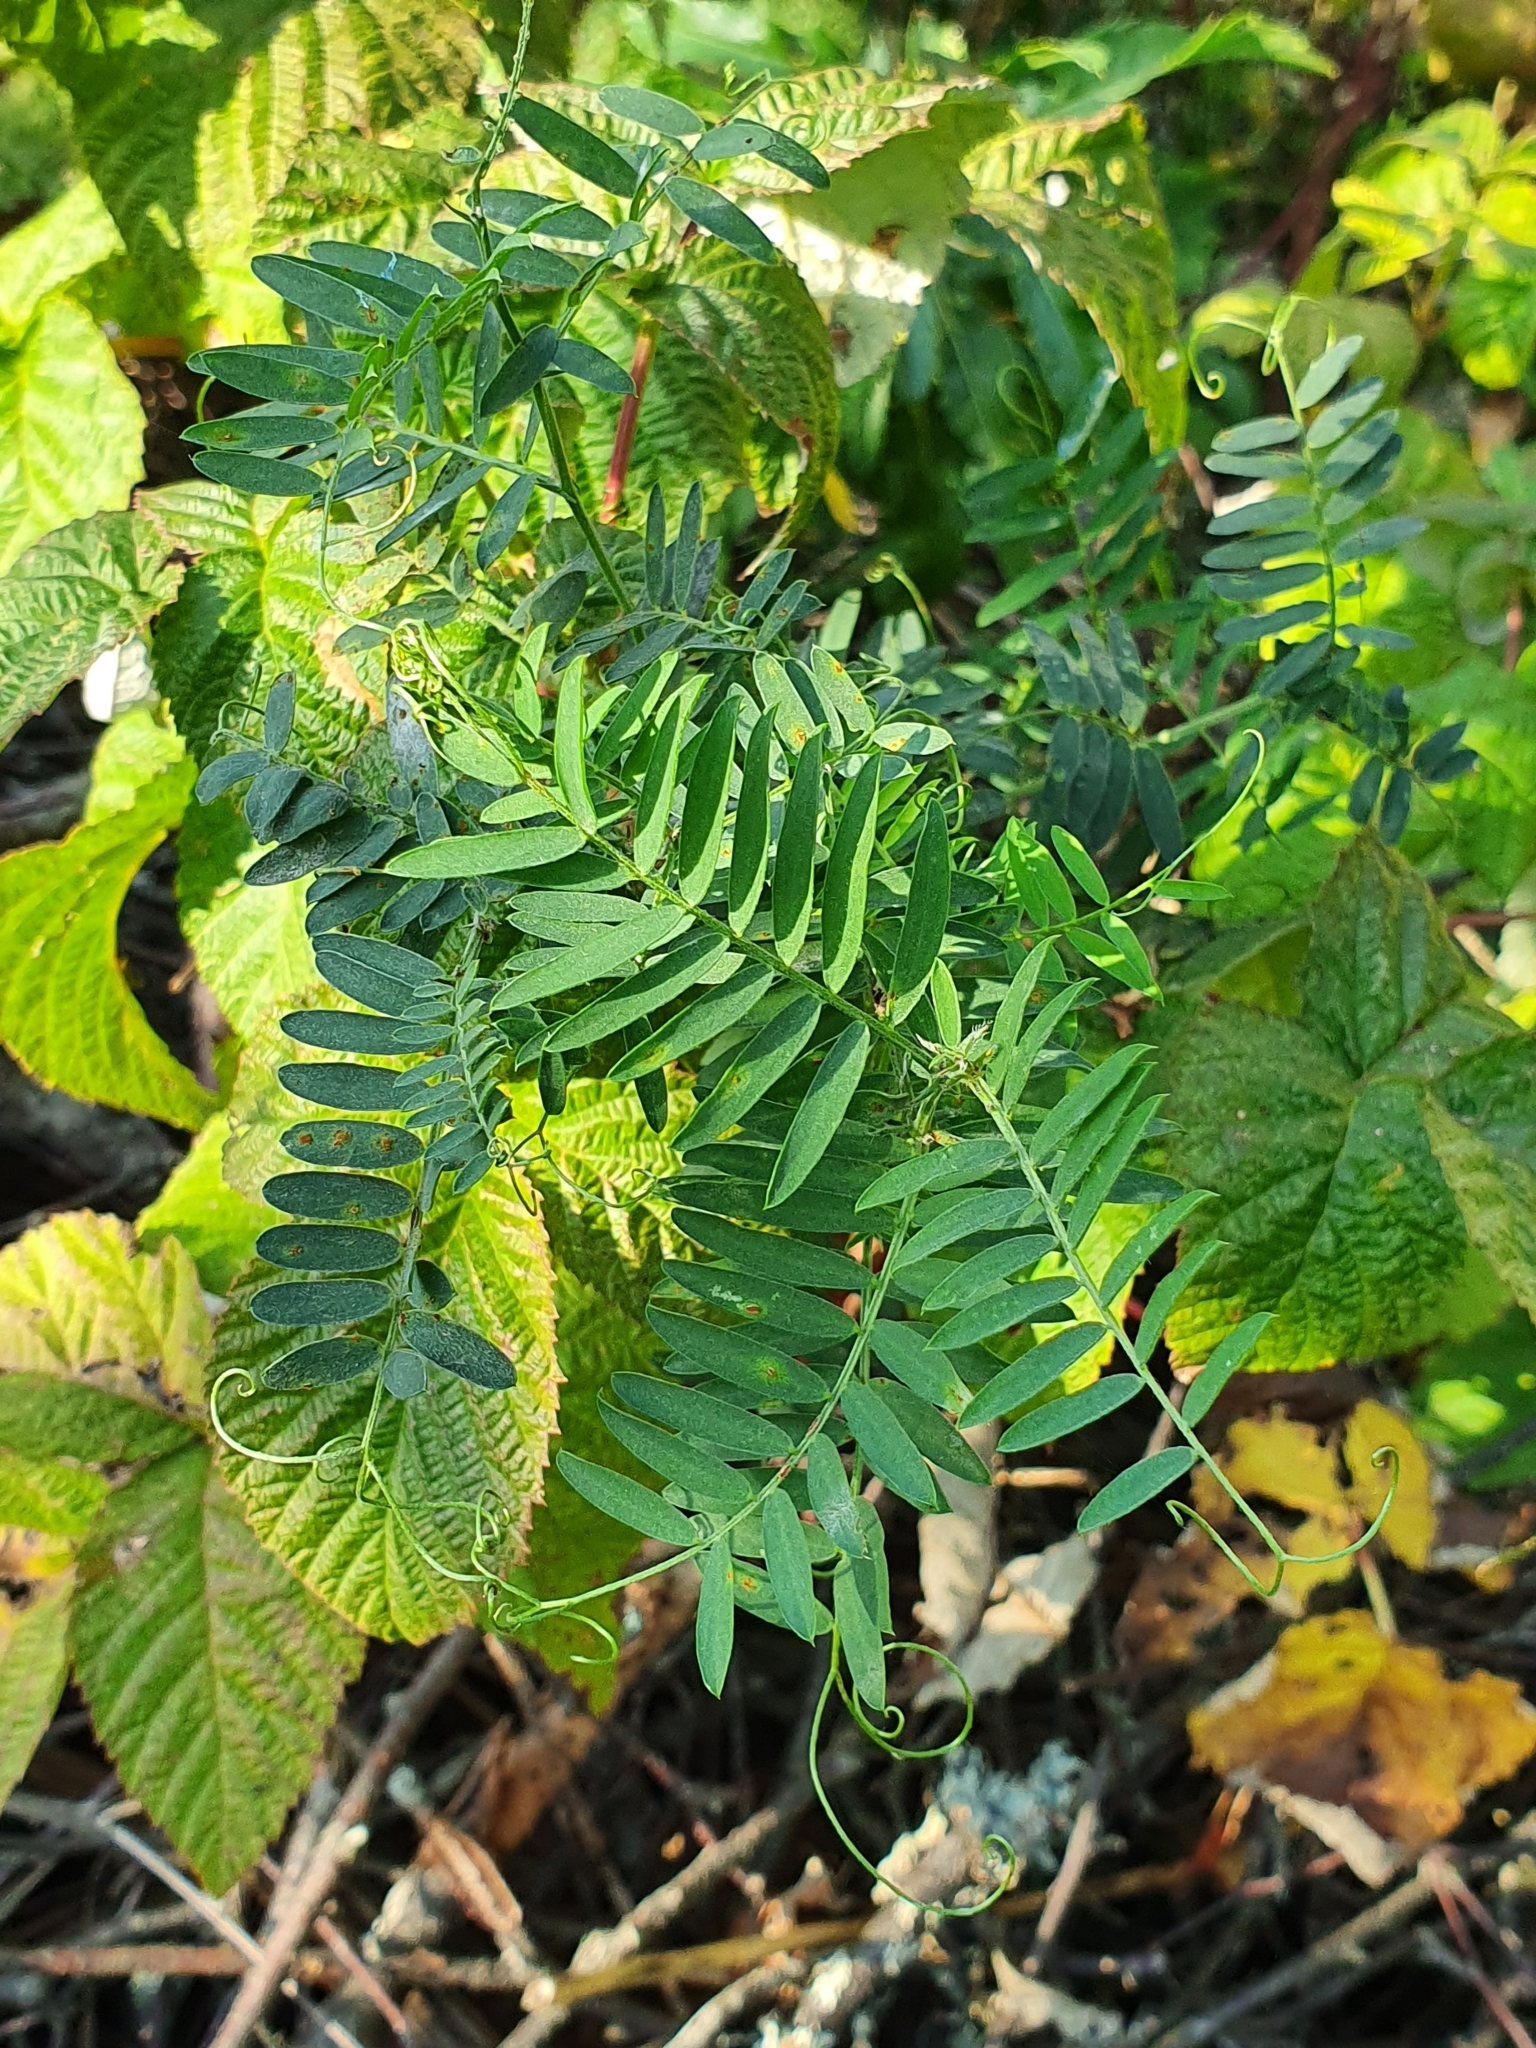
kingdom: Plantae
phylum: Tracheophyta
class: Magnoliopsida
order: Fabales
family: Fabaceae
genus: Vicia
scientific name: Vicia cracca
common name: Bird vetch
